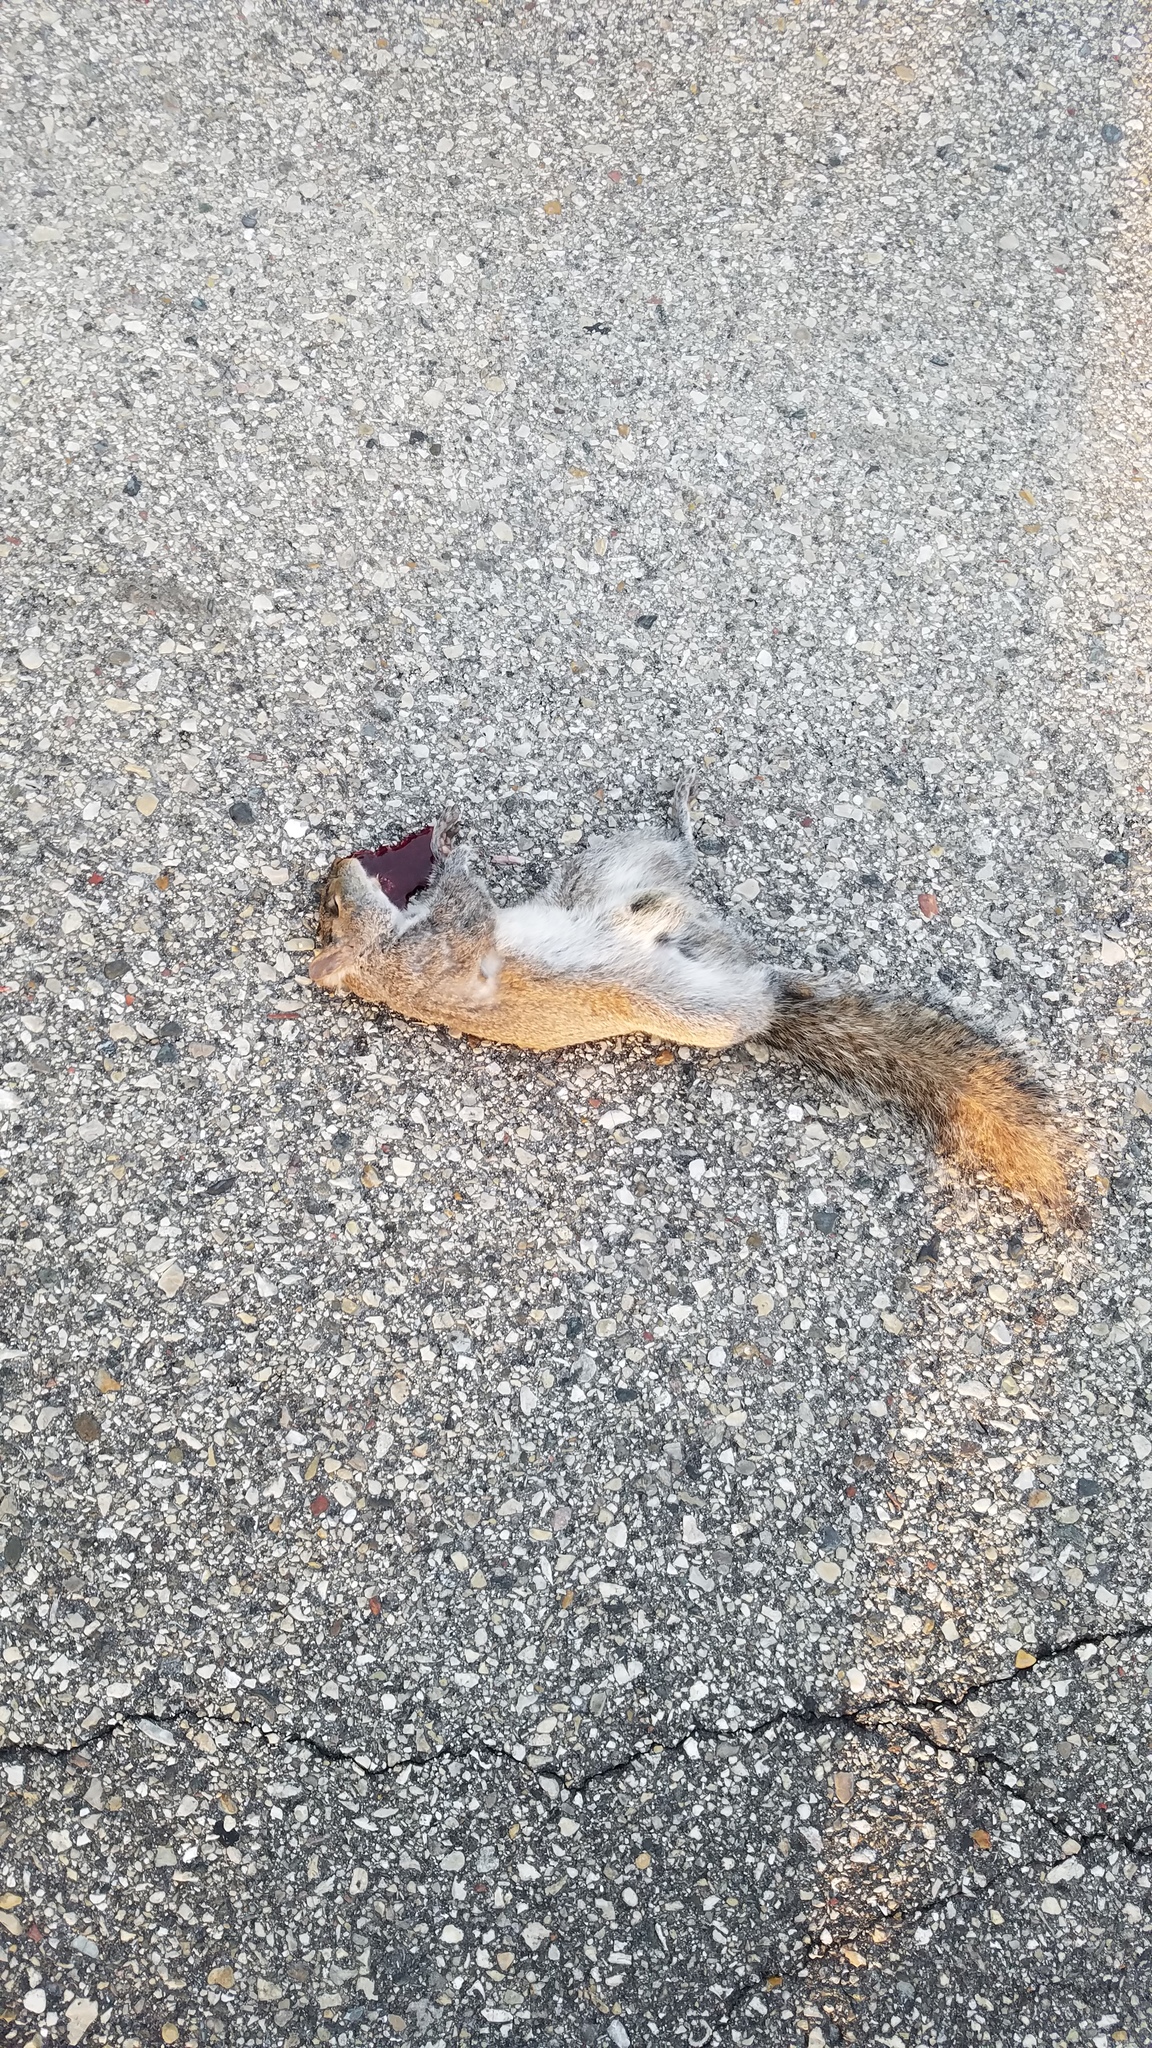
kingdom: Animalia
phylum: Chordata
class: Mammalia
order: Rodentia
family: Sciuridae
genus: Sciurus
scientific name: Sciurus carolinensis
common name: Eastern gray squirrel
